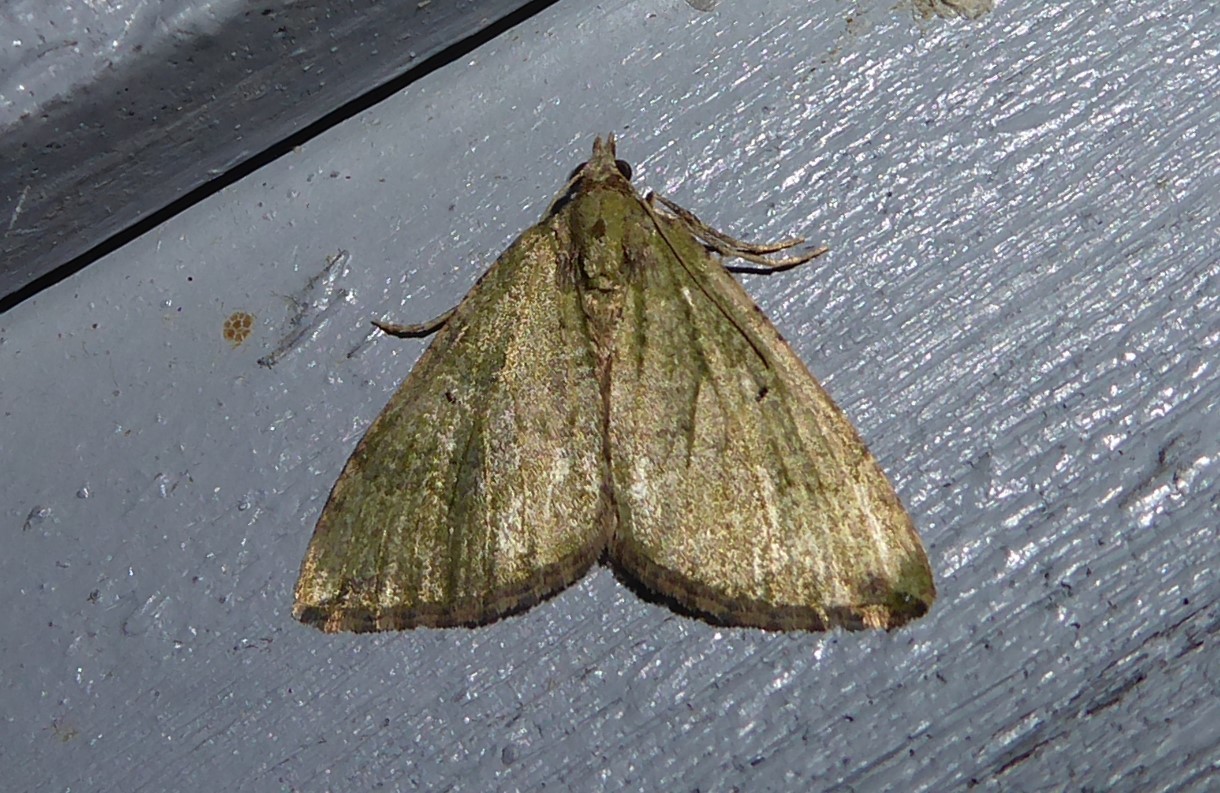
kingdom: Animalia
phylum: Arthropoda
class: Insecta
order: Lepidoptera
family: Geometridae
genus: Epyaxa
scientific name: Epyaxa rosearia
